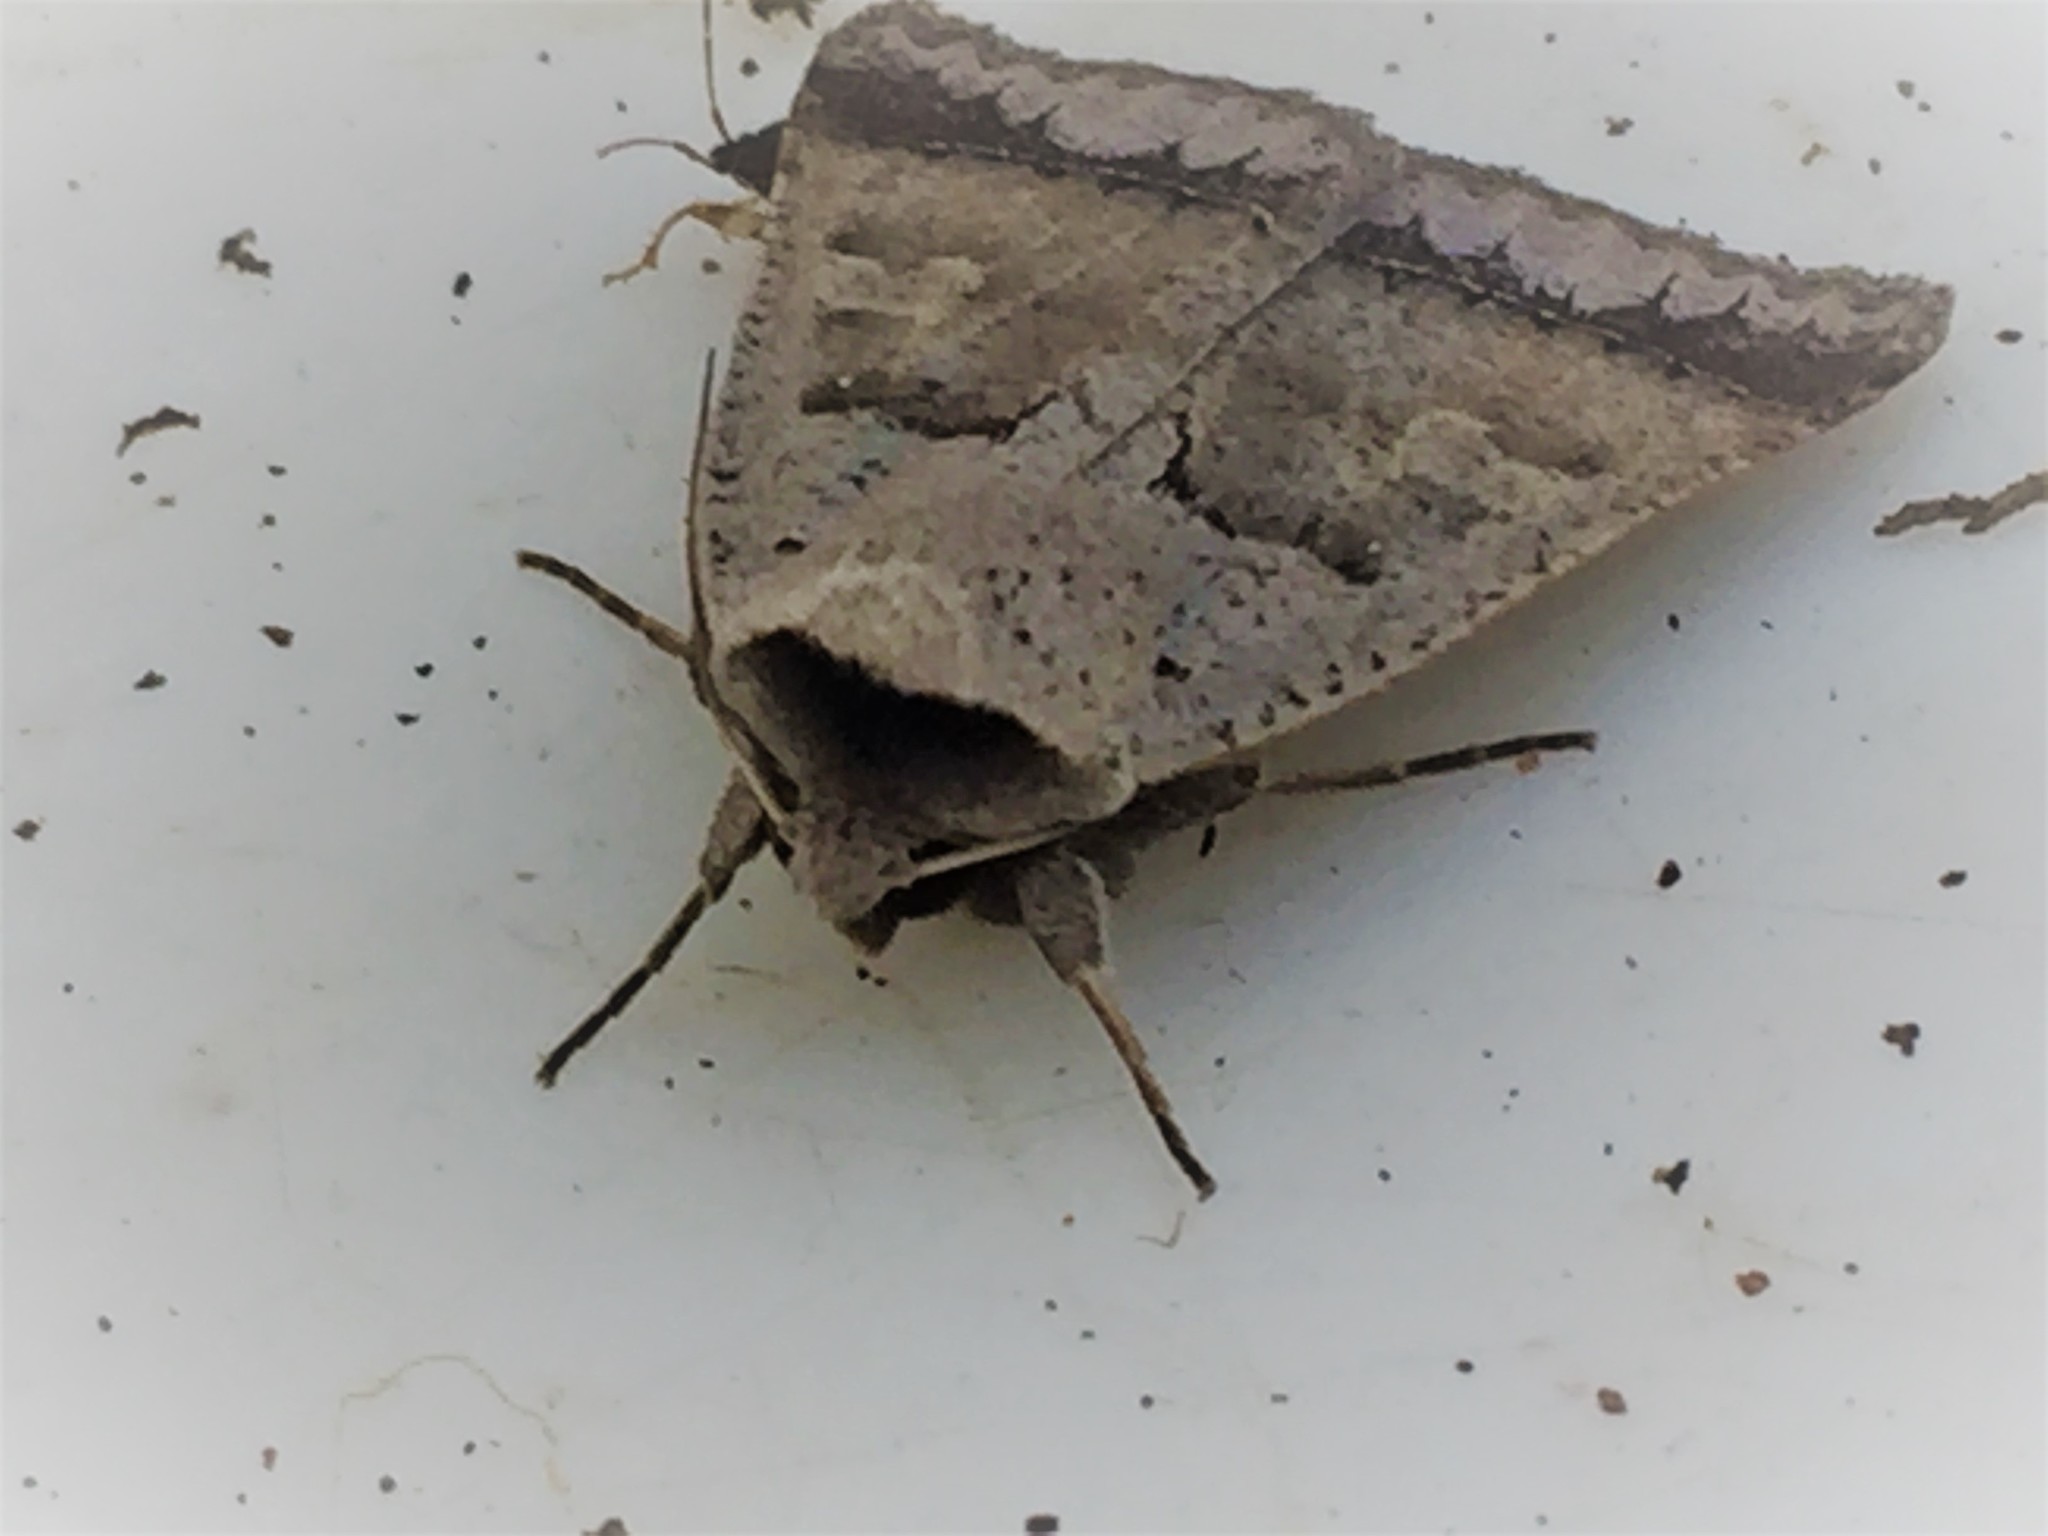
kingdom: Animalia
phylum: Arthropoda
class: Insecta
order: Lepidoptera
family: Erebidae
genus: Pantydia
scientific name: Pantydia sparsa
